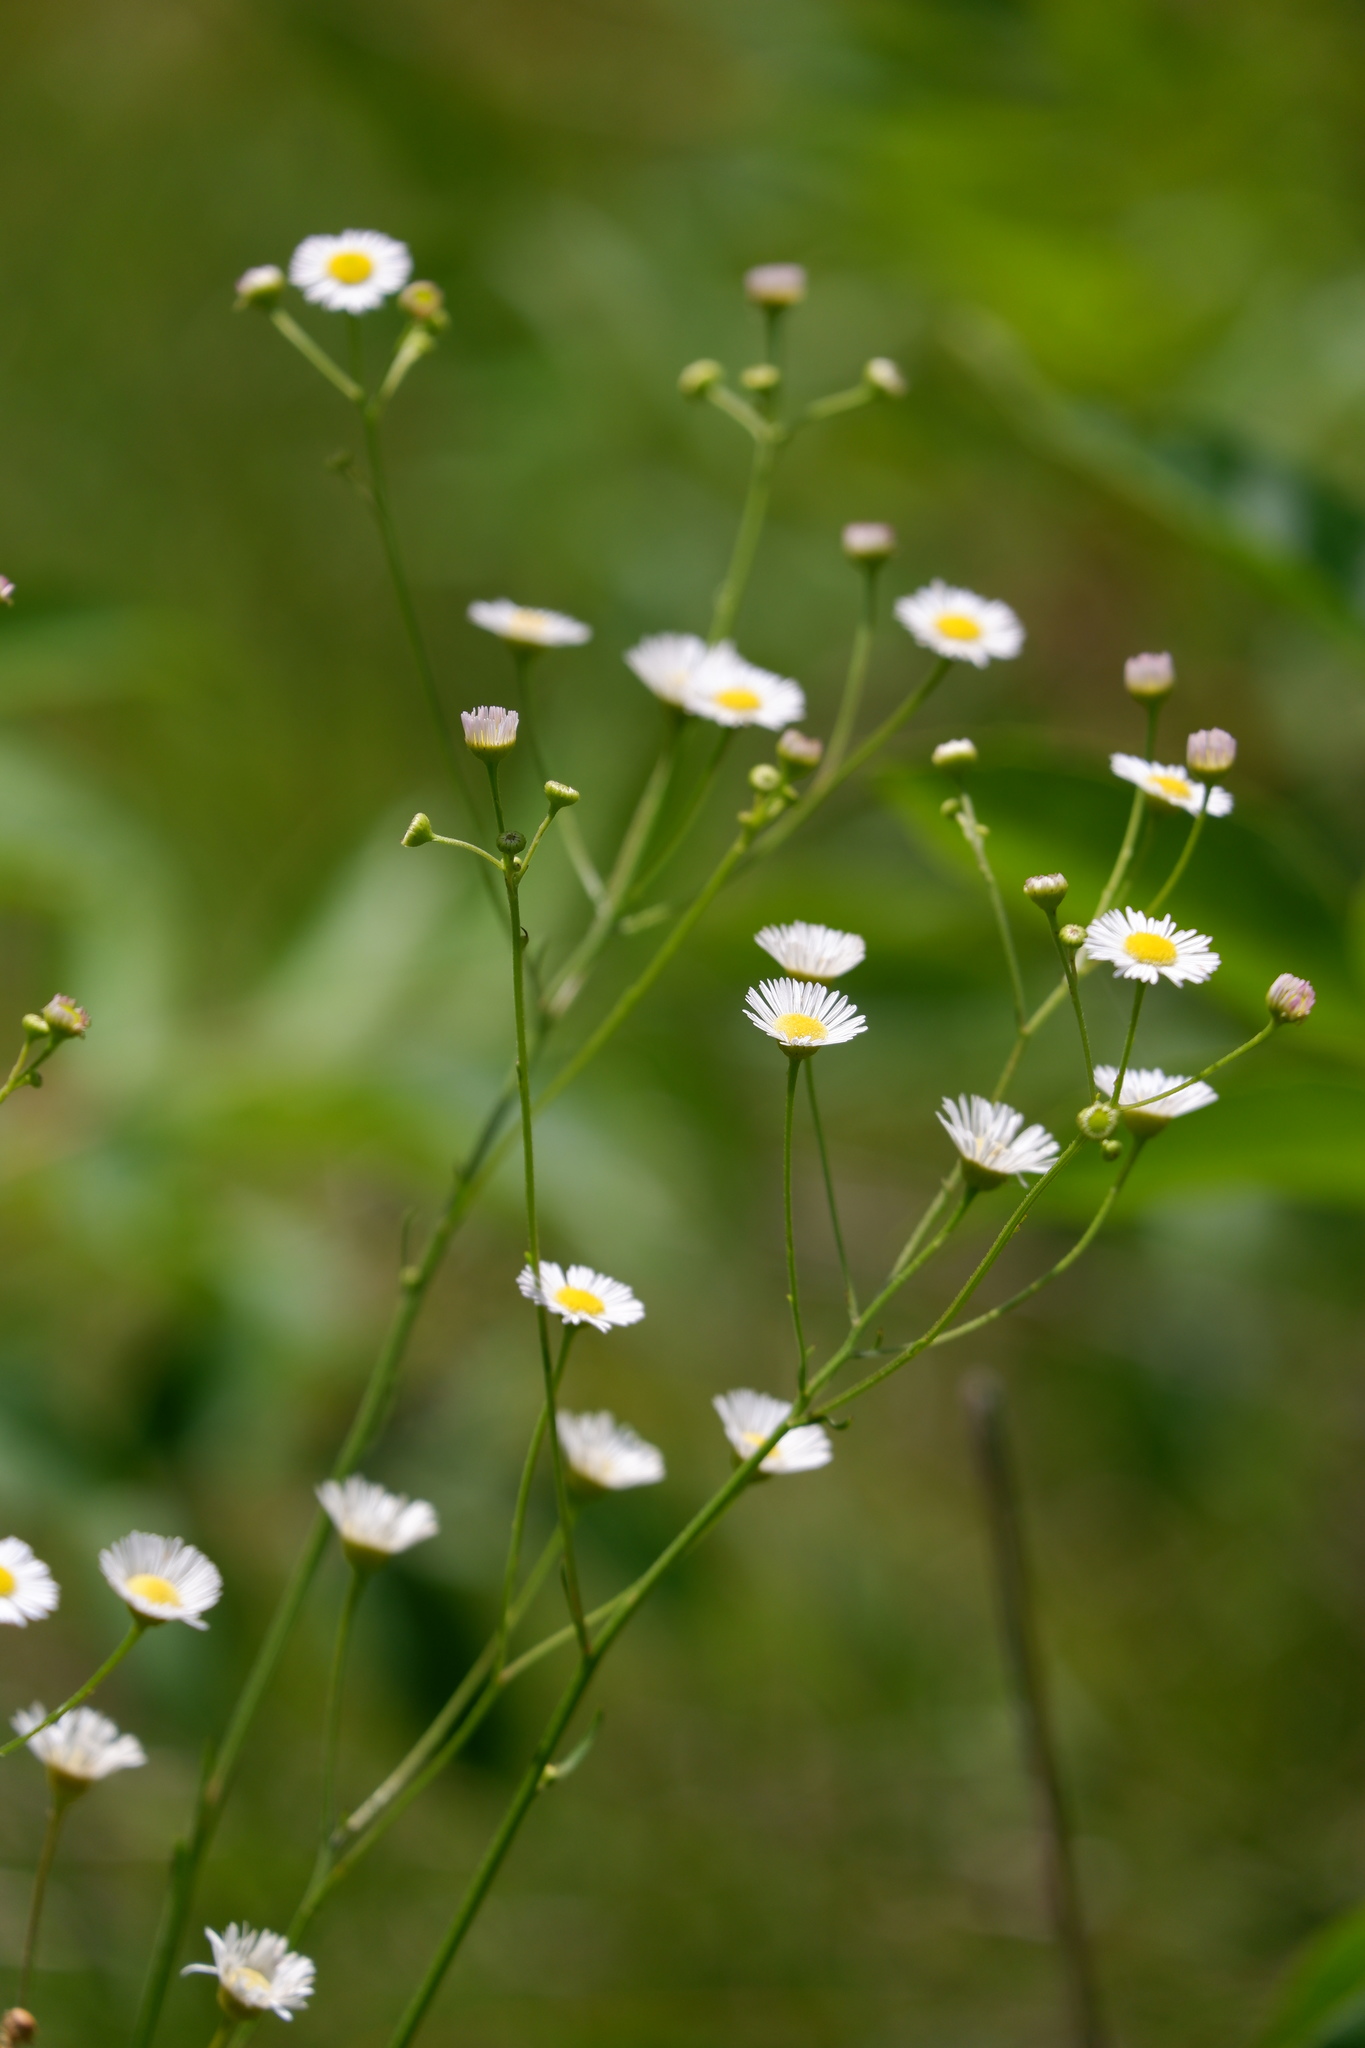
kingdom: Plantae
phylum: Tracheophyta
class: Magnoliopsida
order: Asterales
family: Asteraceae
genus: Erigeron
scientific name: Erigeron allisonii
